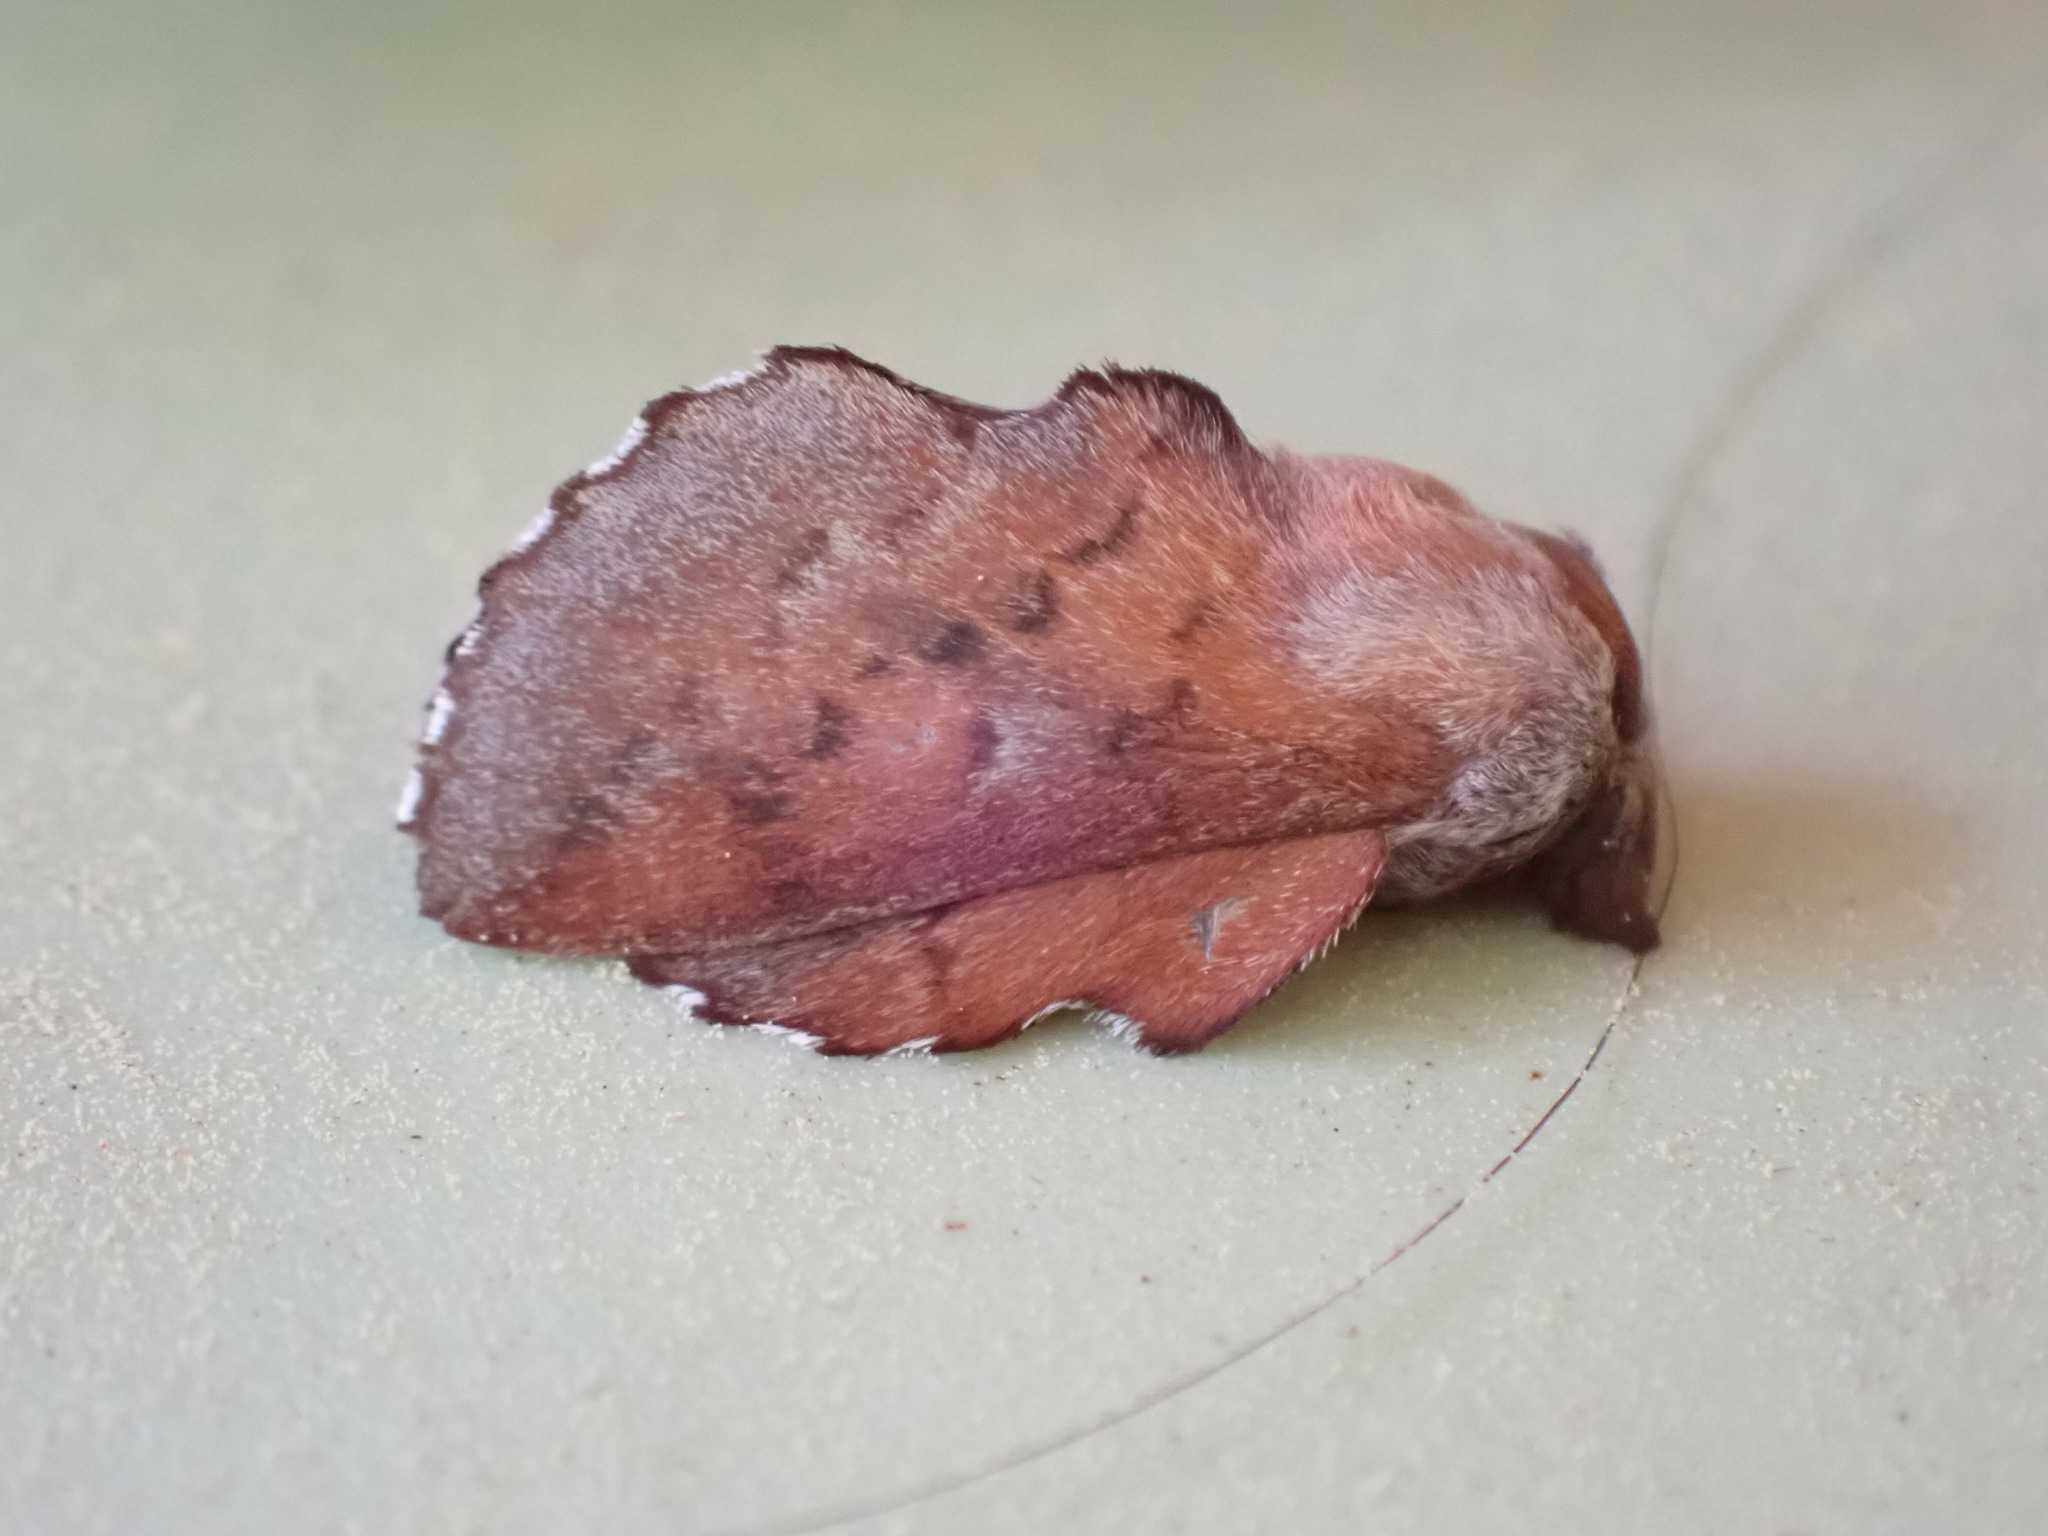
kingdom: Animalia
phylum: Arthropoda
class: Insecta
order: Lepidoptera
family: Lasiocampidae
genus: Phyllodesma
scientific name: Phyllodesma americana
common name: American lappet moth
